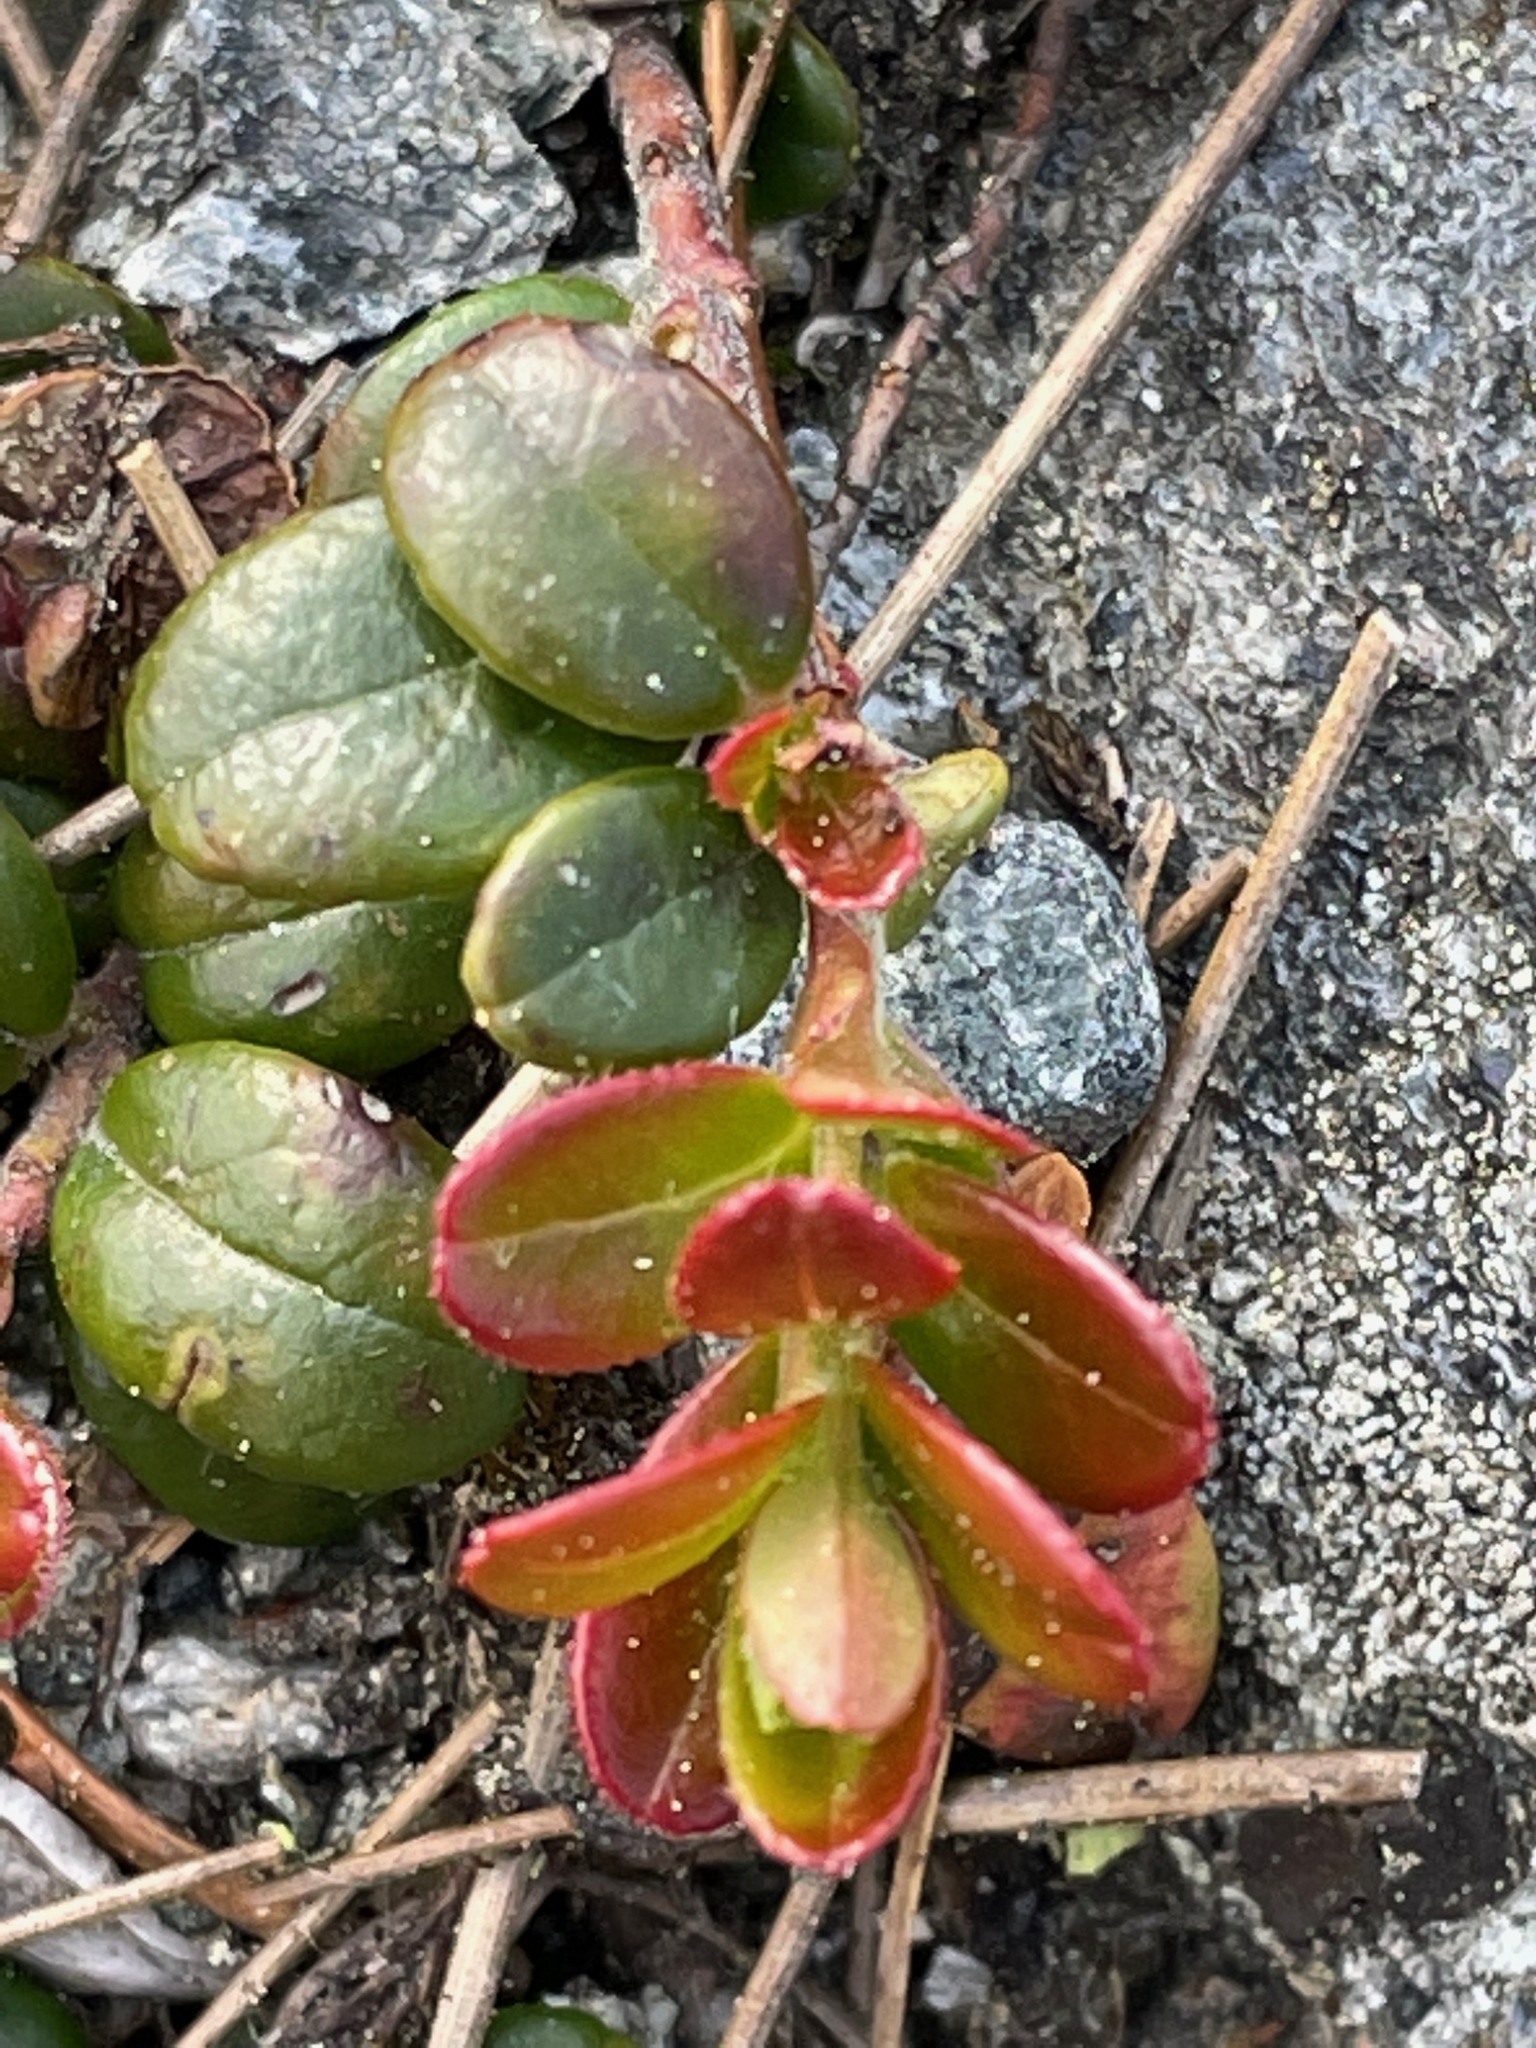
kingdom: Plantae
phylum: Tracheophyta
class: Magnoliopsida
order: Ericales
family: Ericaceae
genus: Vaccinium
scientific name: Vaccinium vitis-idaea
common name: Cowberry
